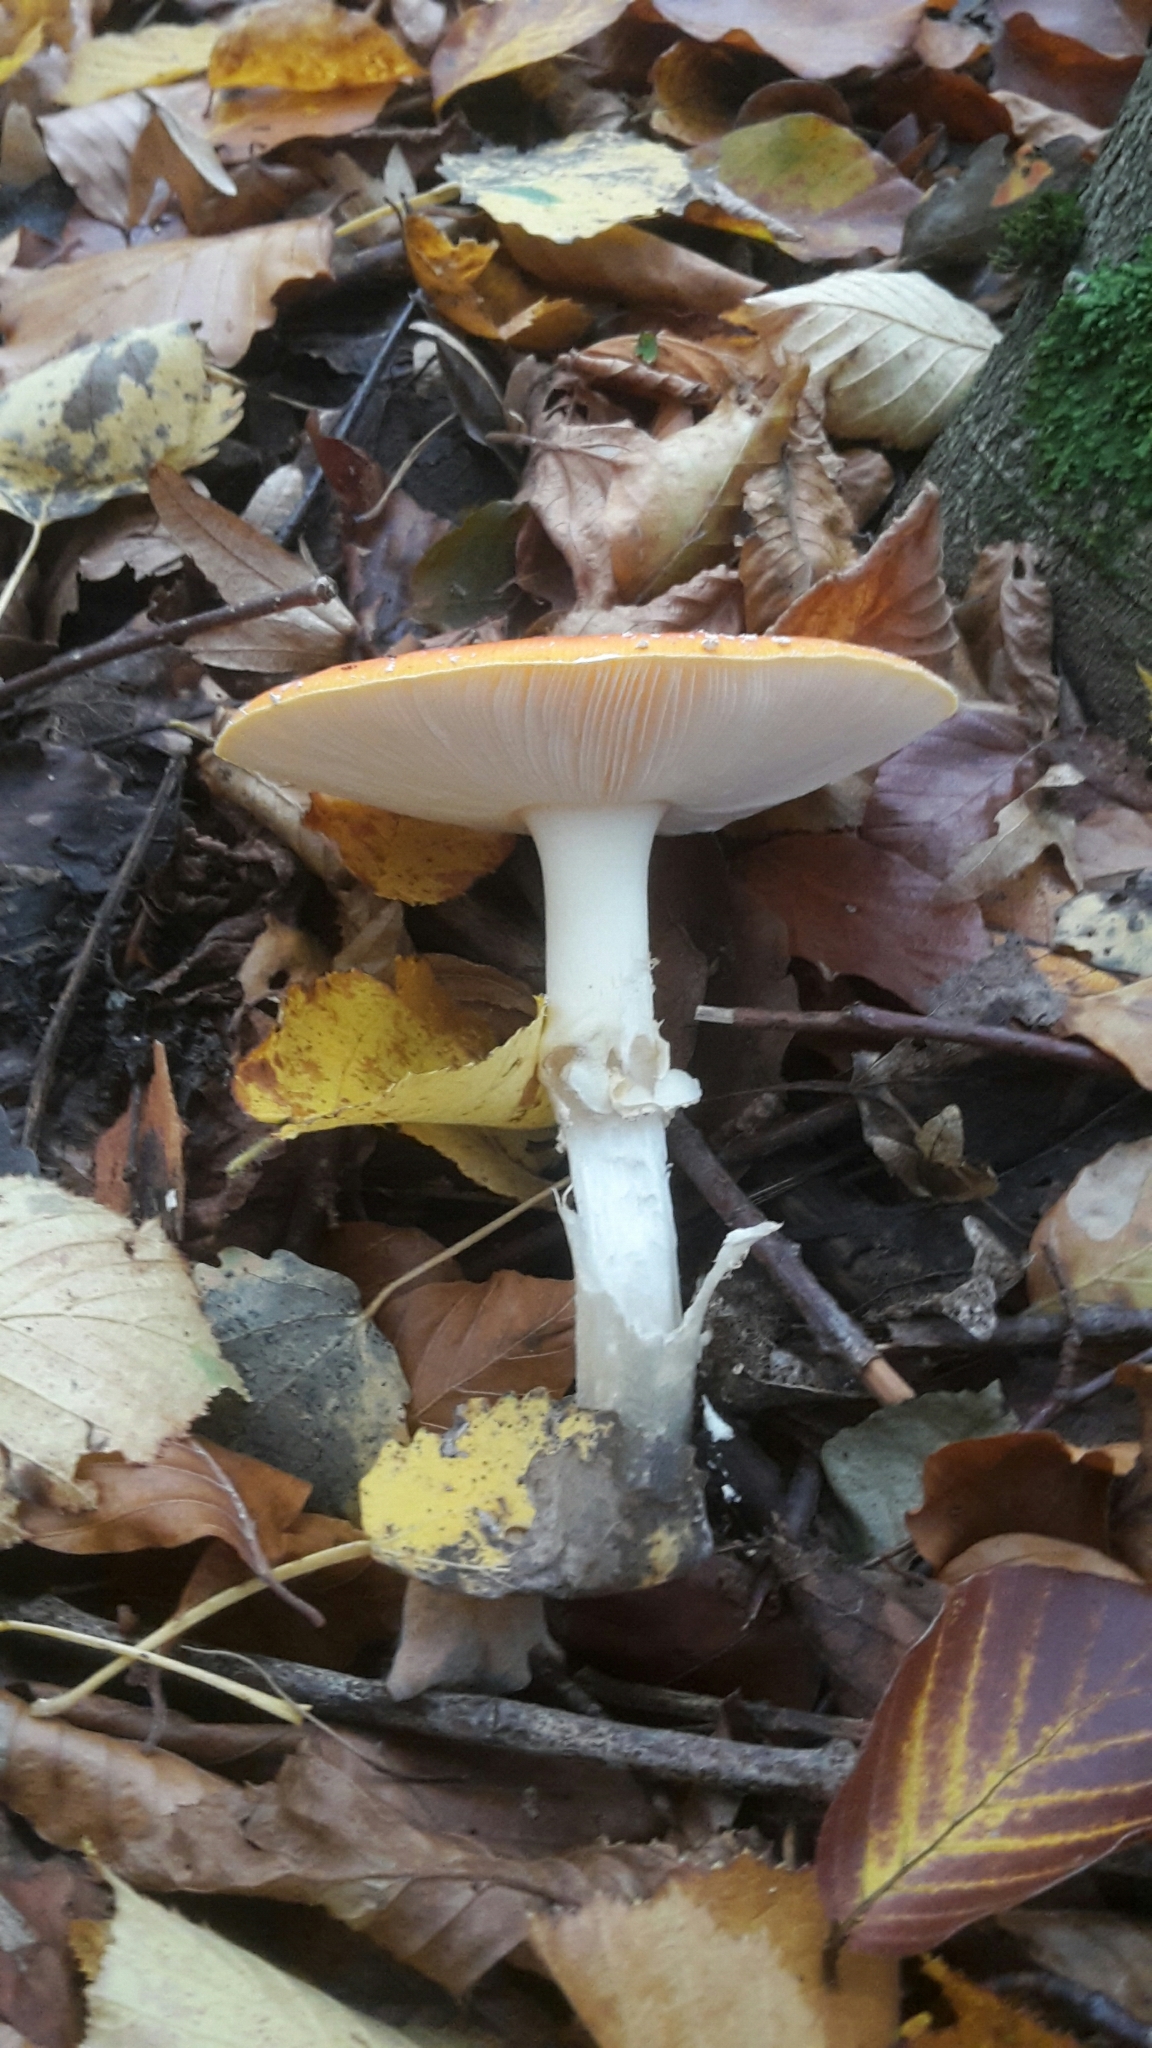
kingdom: Fungi
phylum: Basidiomycota
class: Agaricomycetes
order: Agaricales
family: Amanitaceae
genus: Amanita
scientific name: Amanita muscaria
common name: Fly agaric
